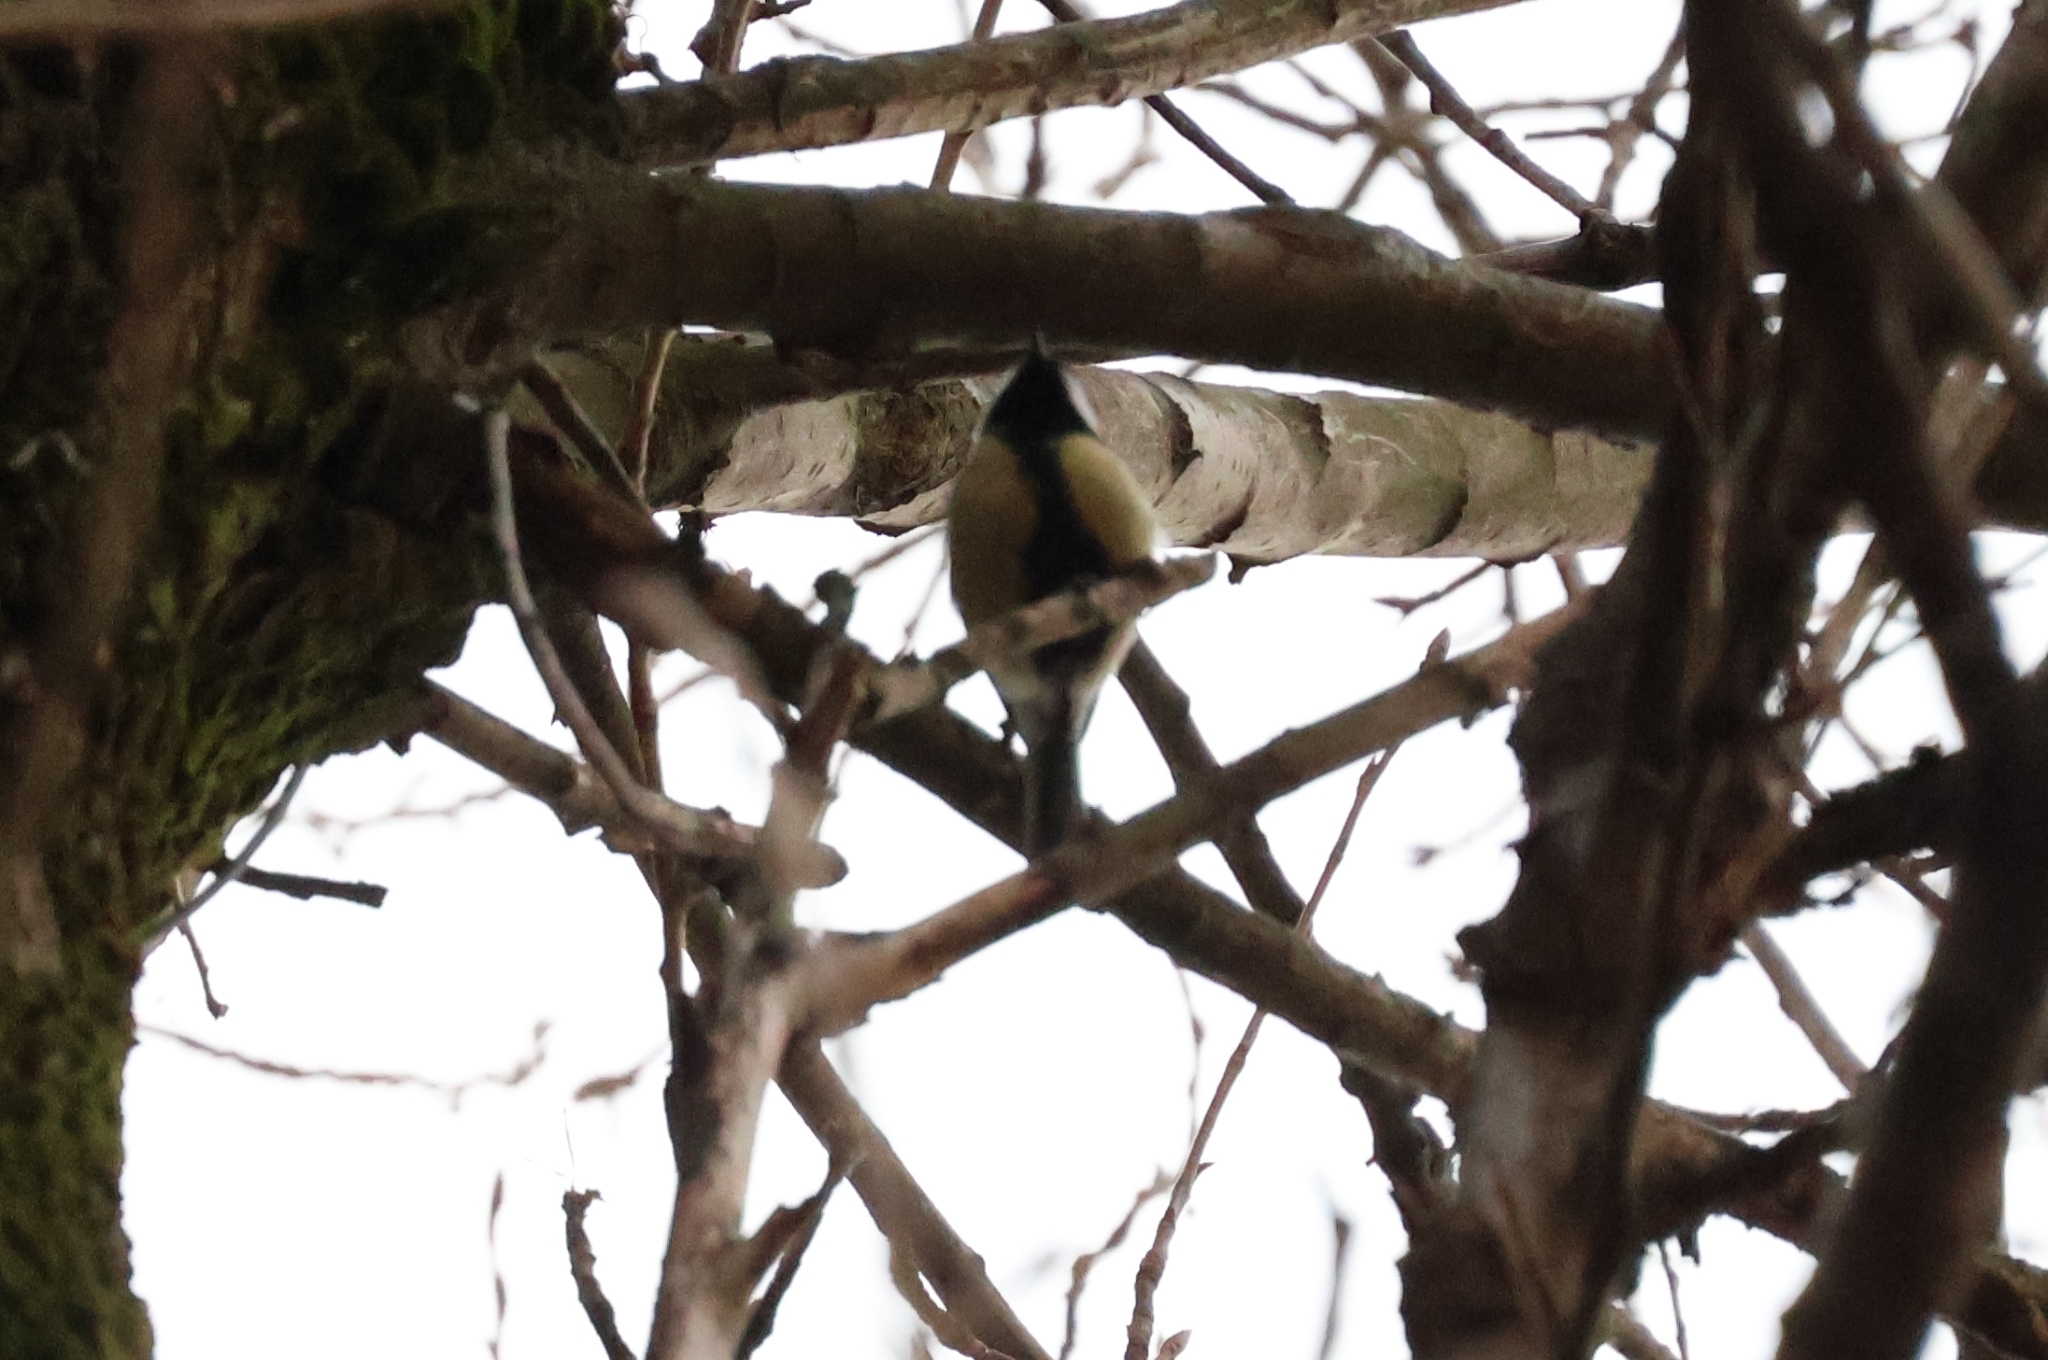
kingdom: Animalia
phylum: Chordata
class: Aves
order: Passeriformes
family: Paridae
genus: Parus
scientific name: Parus major
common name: Great tit
